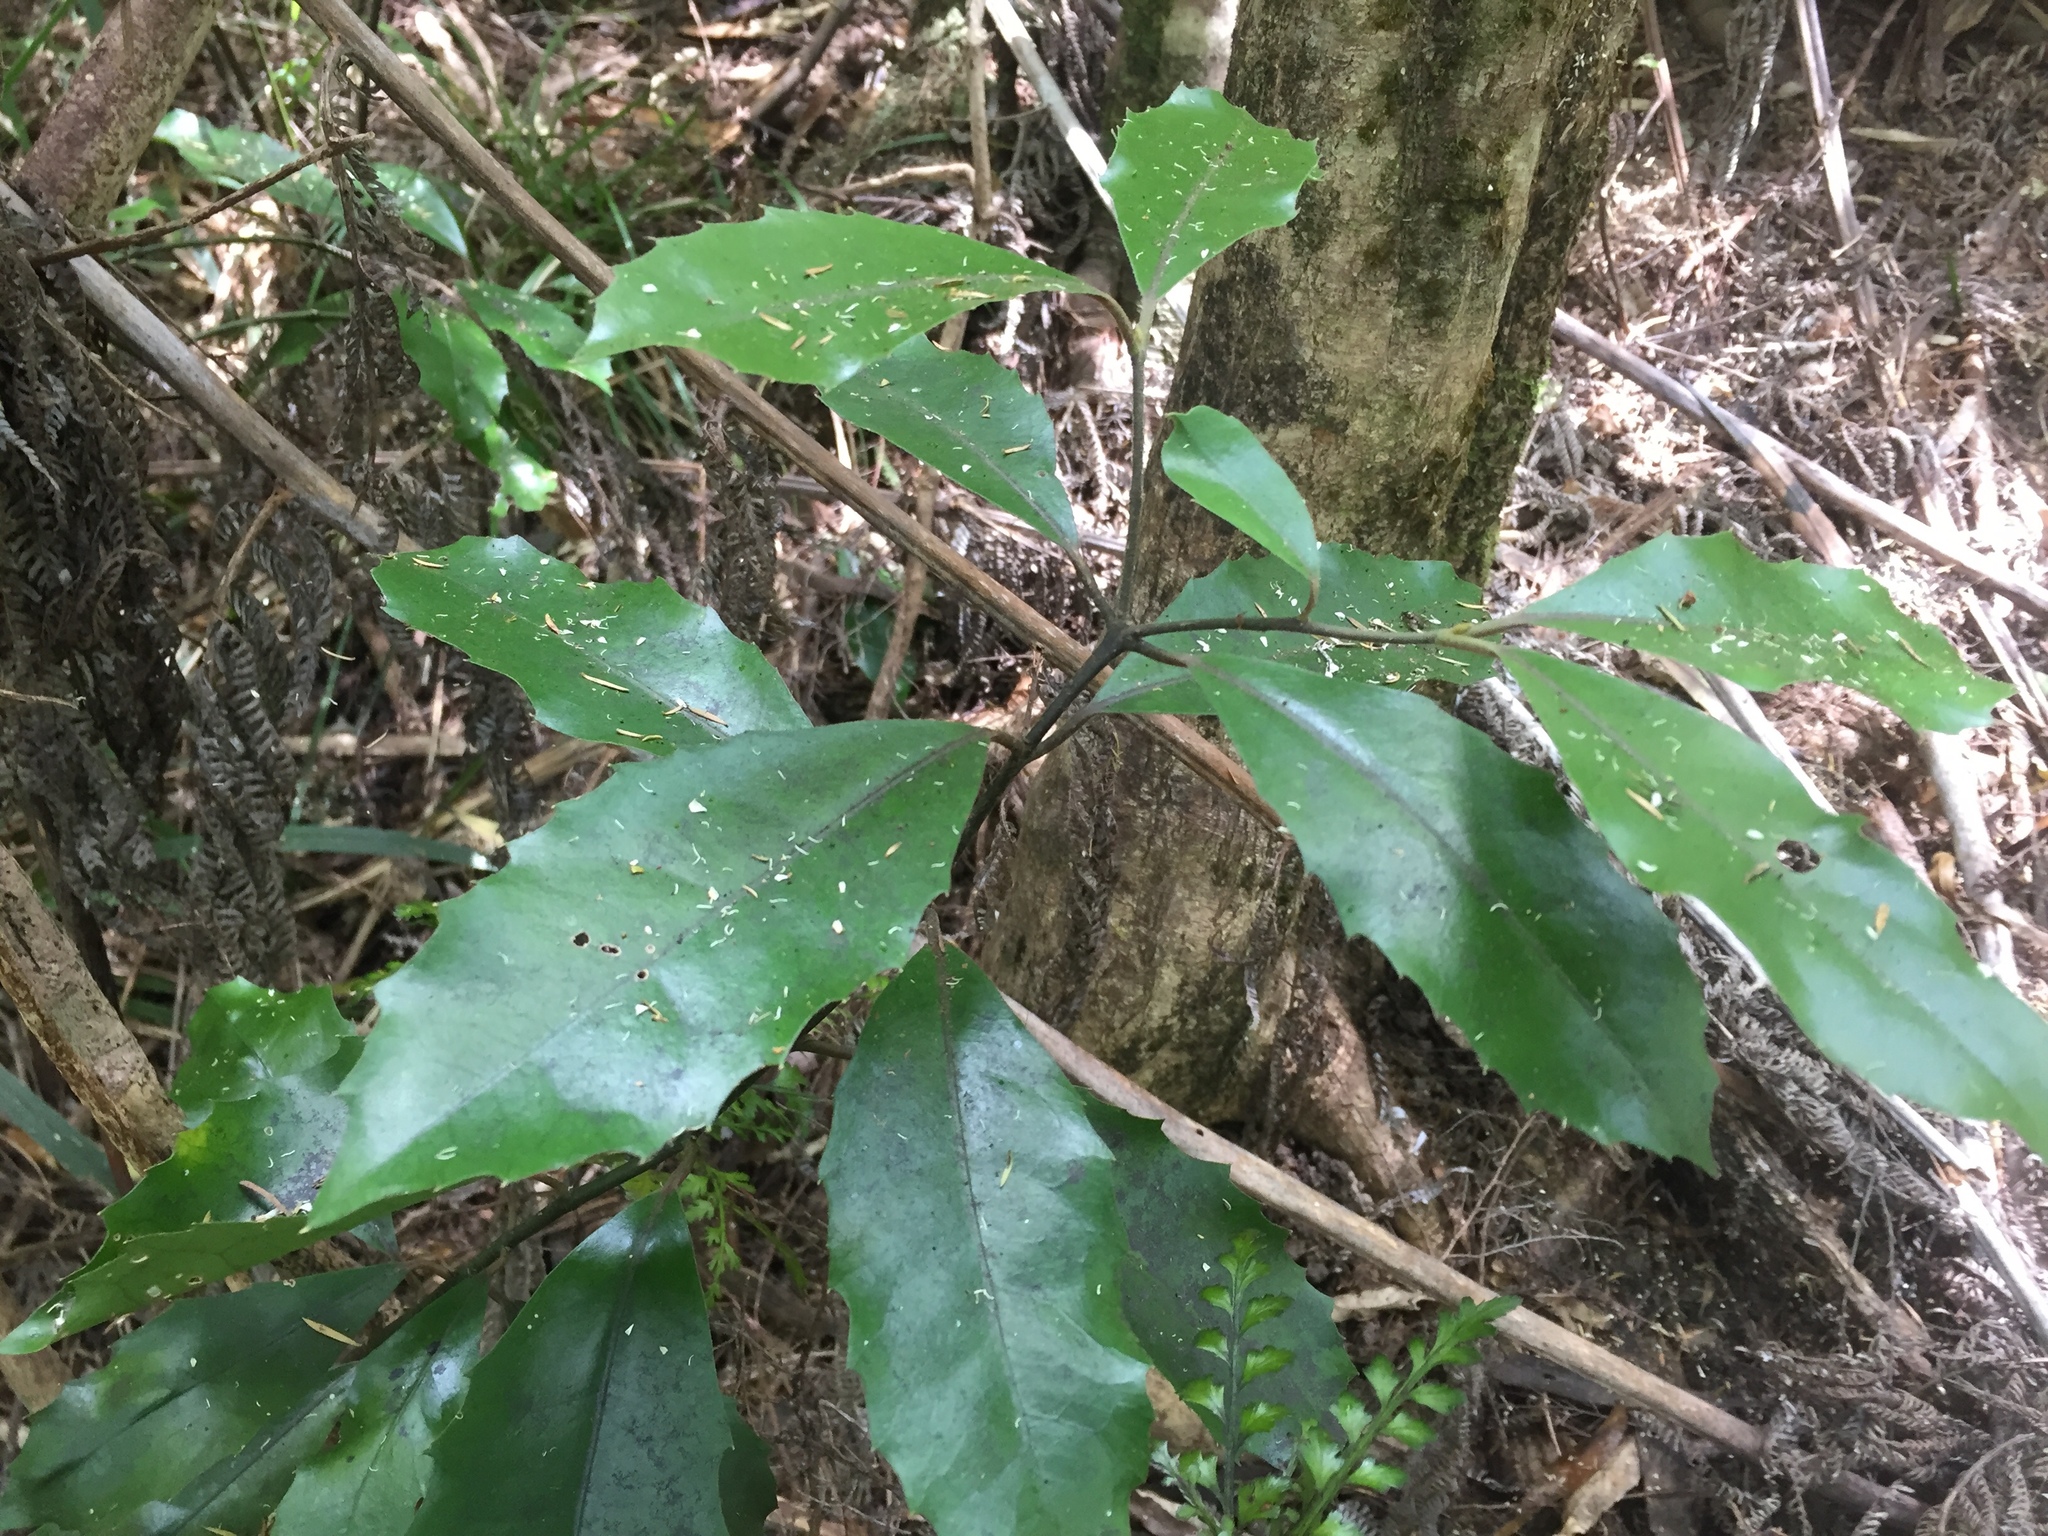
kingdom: Plantae
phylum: Tracheophyta
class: Magnoliopsida
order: Laurales
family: Monimiaceae
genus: Hedycarya
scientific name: Hedycarya arborea
